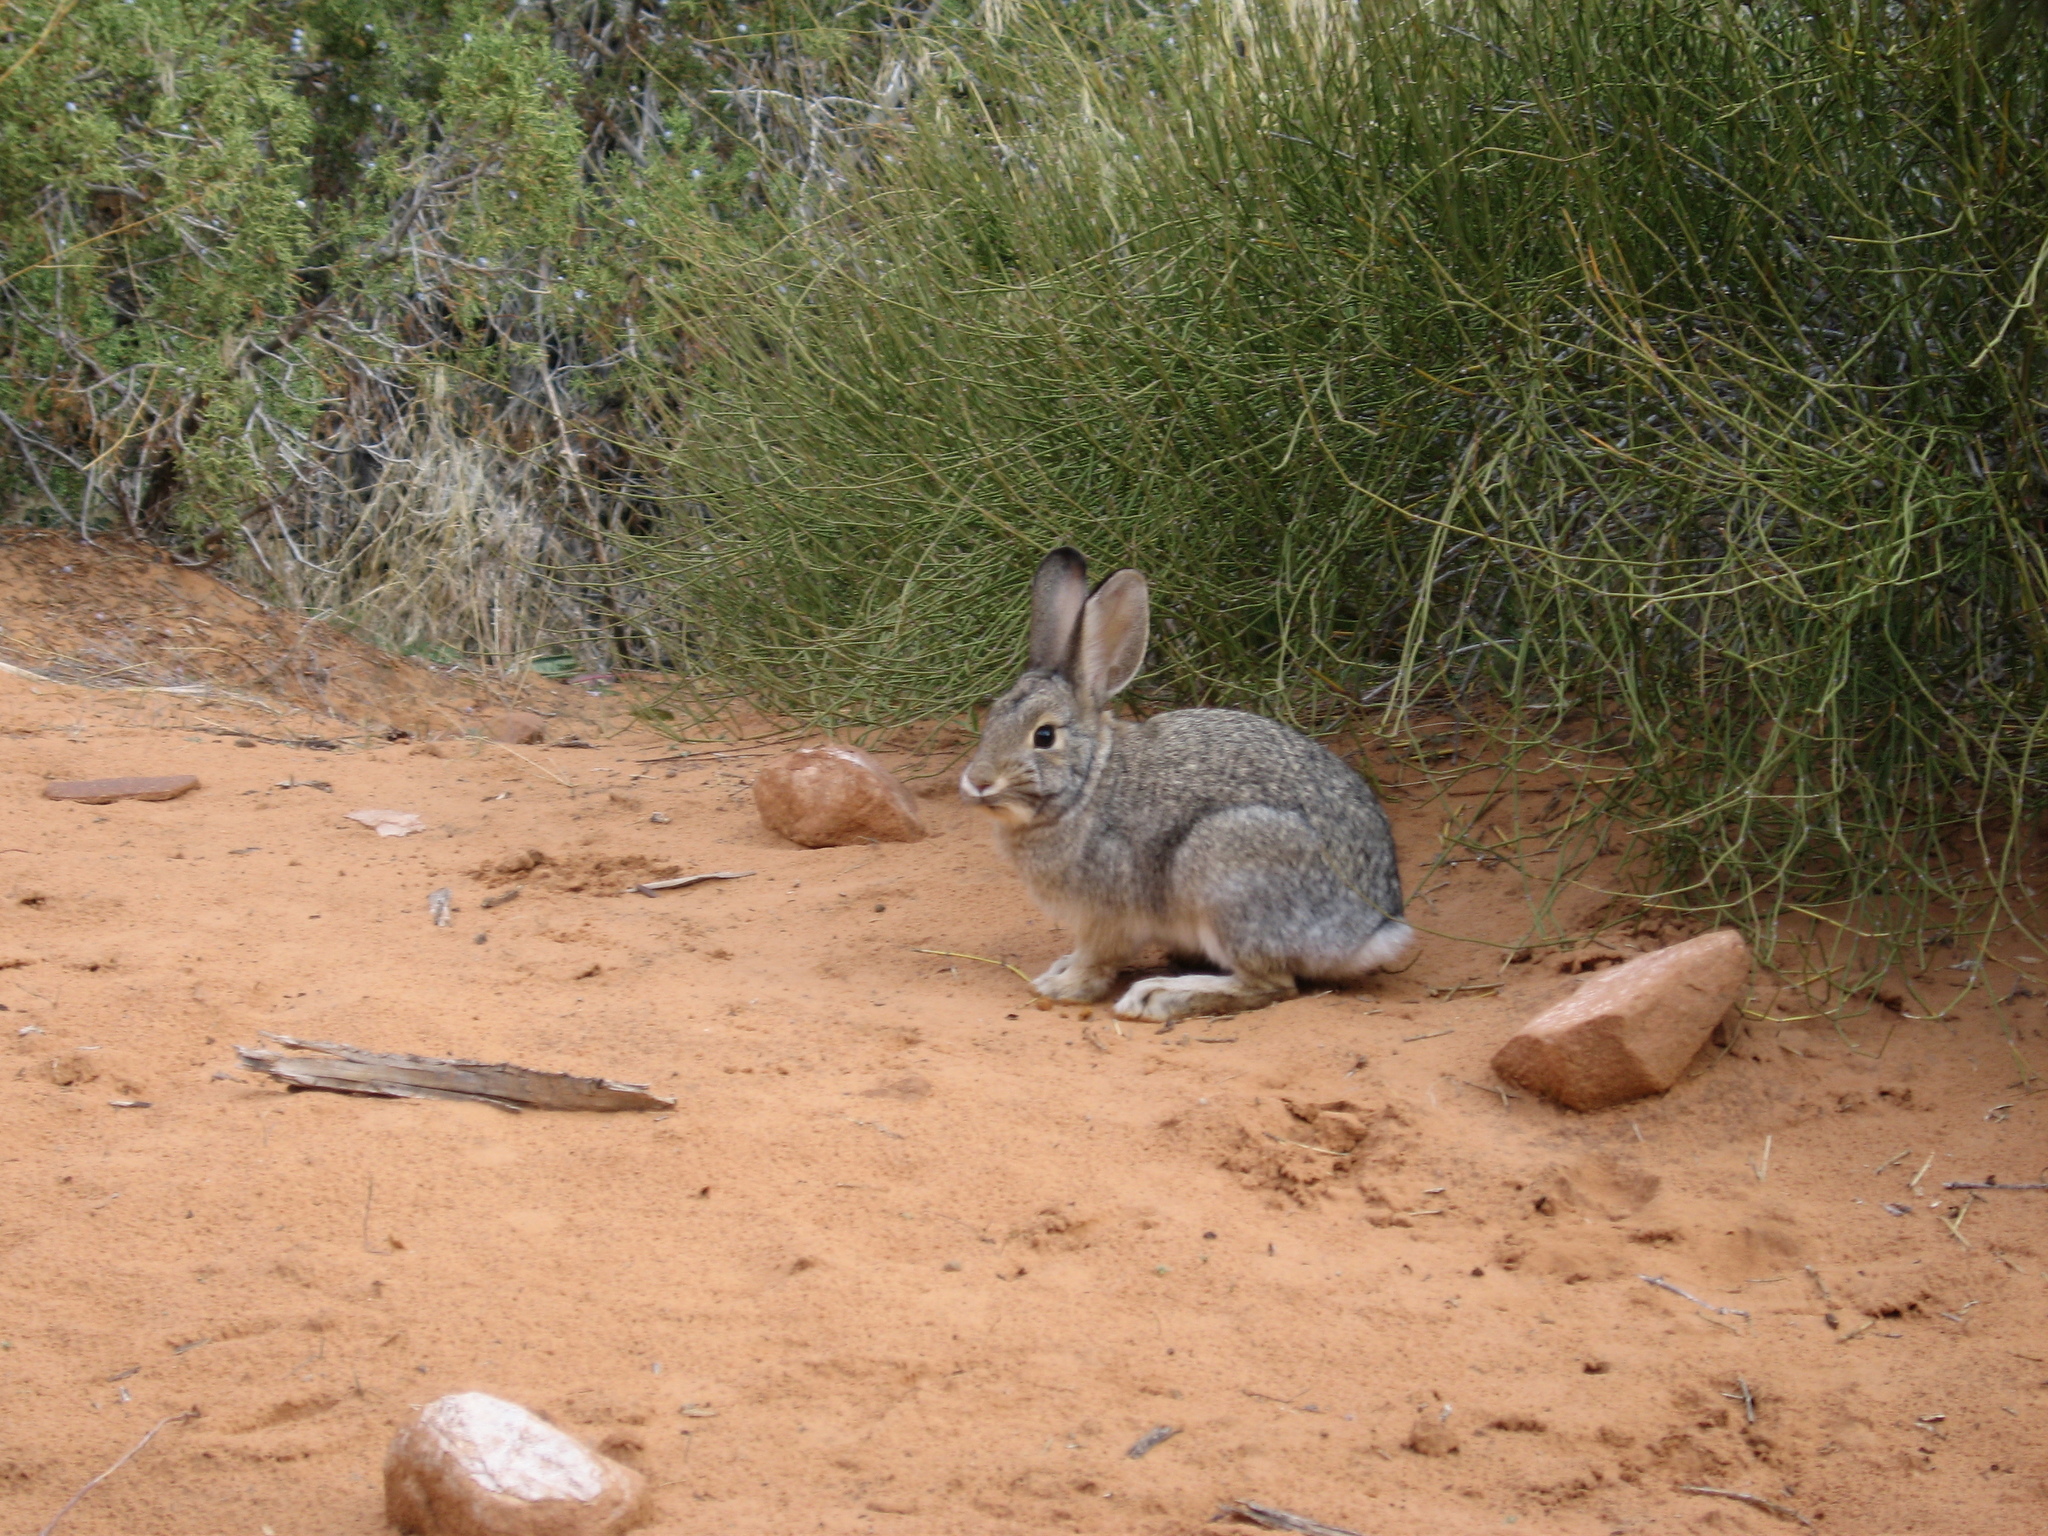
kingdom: Animalia
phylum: Chordata
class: Mammalia
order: Lagomorpha
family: Leporidae
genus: Sylvilagus
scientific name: Sylvilagus audubonii
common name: Desert cottontail
